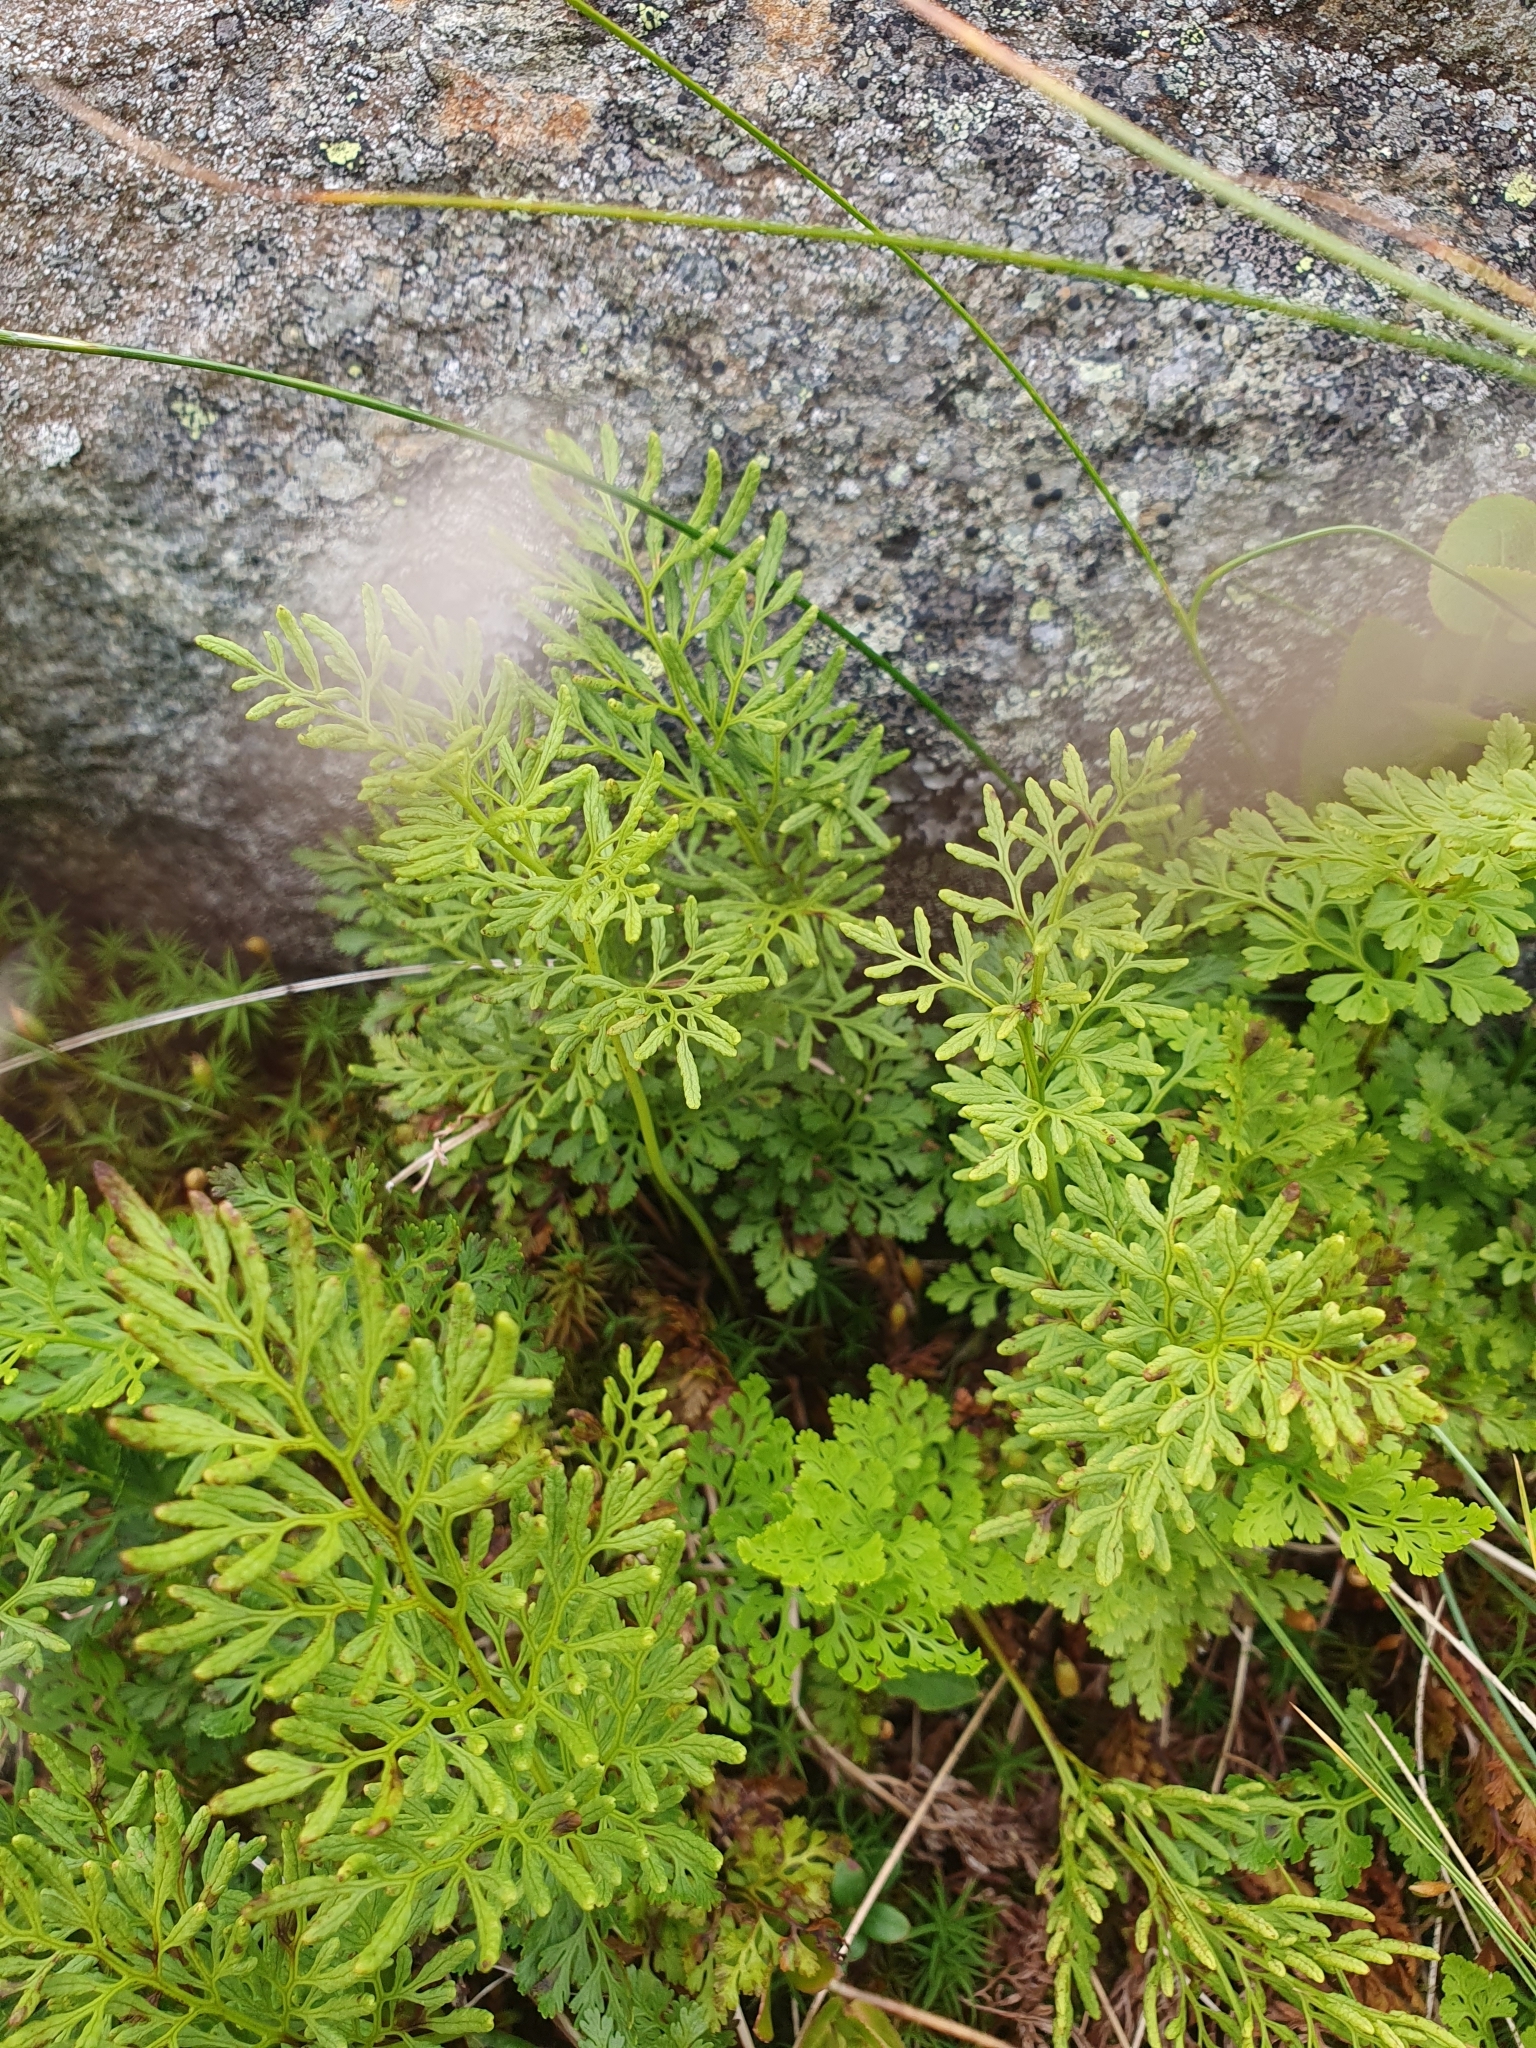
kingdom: Plantae
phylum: Tracheophyta
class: Polypodiopsida
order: Polypodiales
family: Pteridaceae
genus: Cryptogramma
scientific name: Cryptogramma crispa
